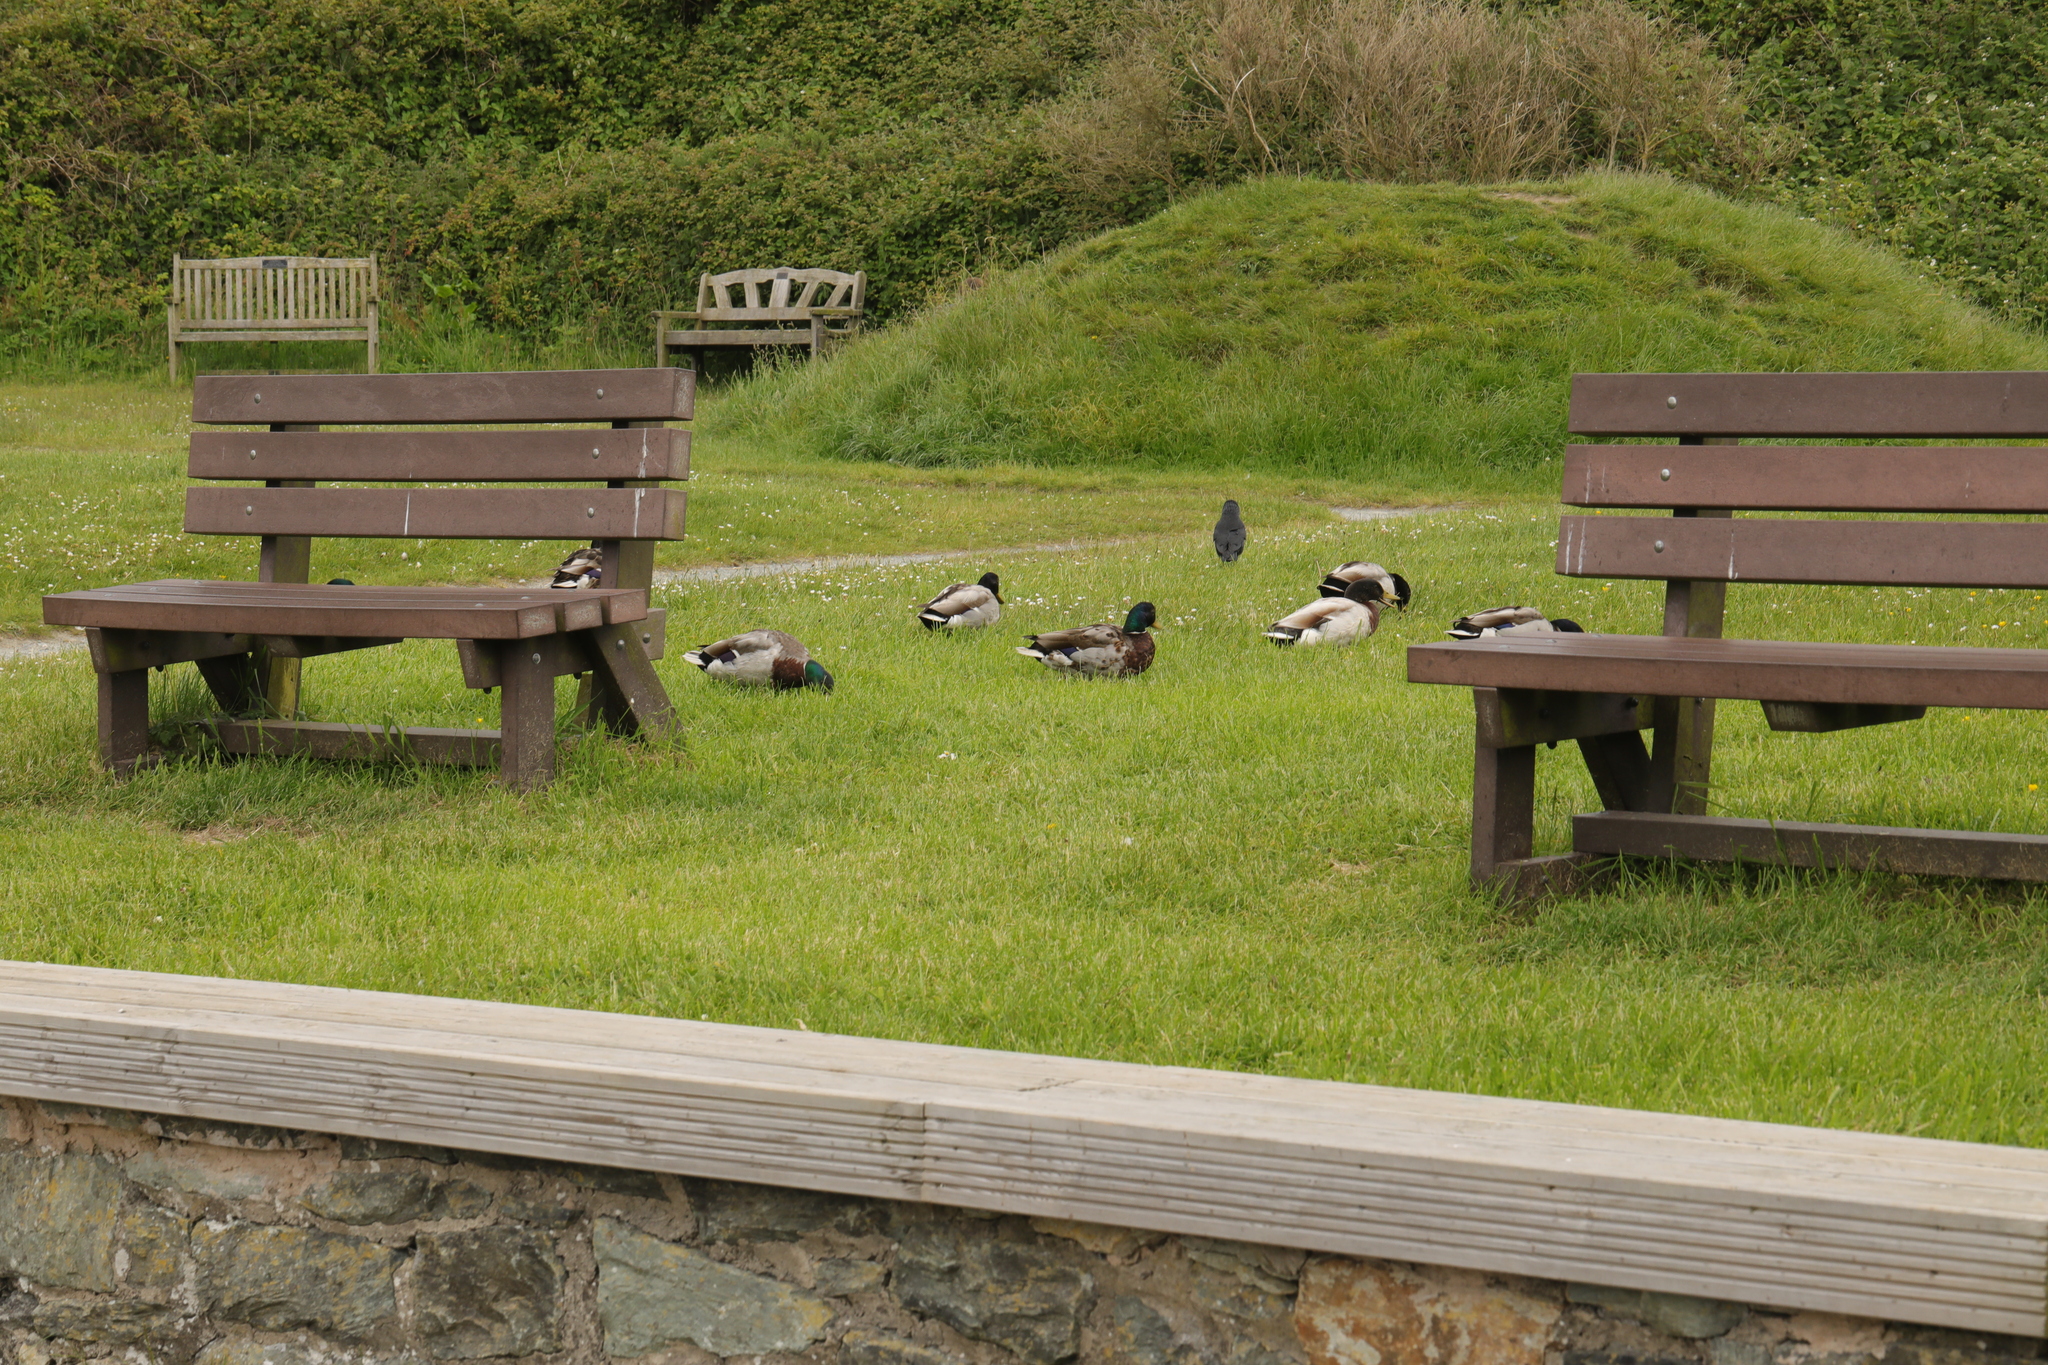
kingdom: Animalia
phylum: Chordata
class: Aves
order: Anseriformes
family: Anatidae
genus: Anas
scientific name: Anas platyrhynchos
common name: Mallard
